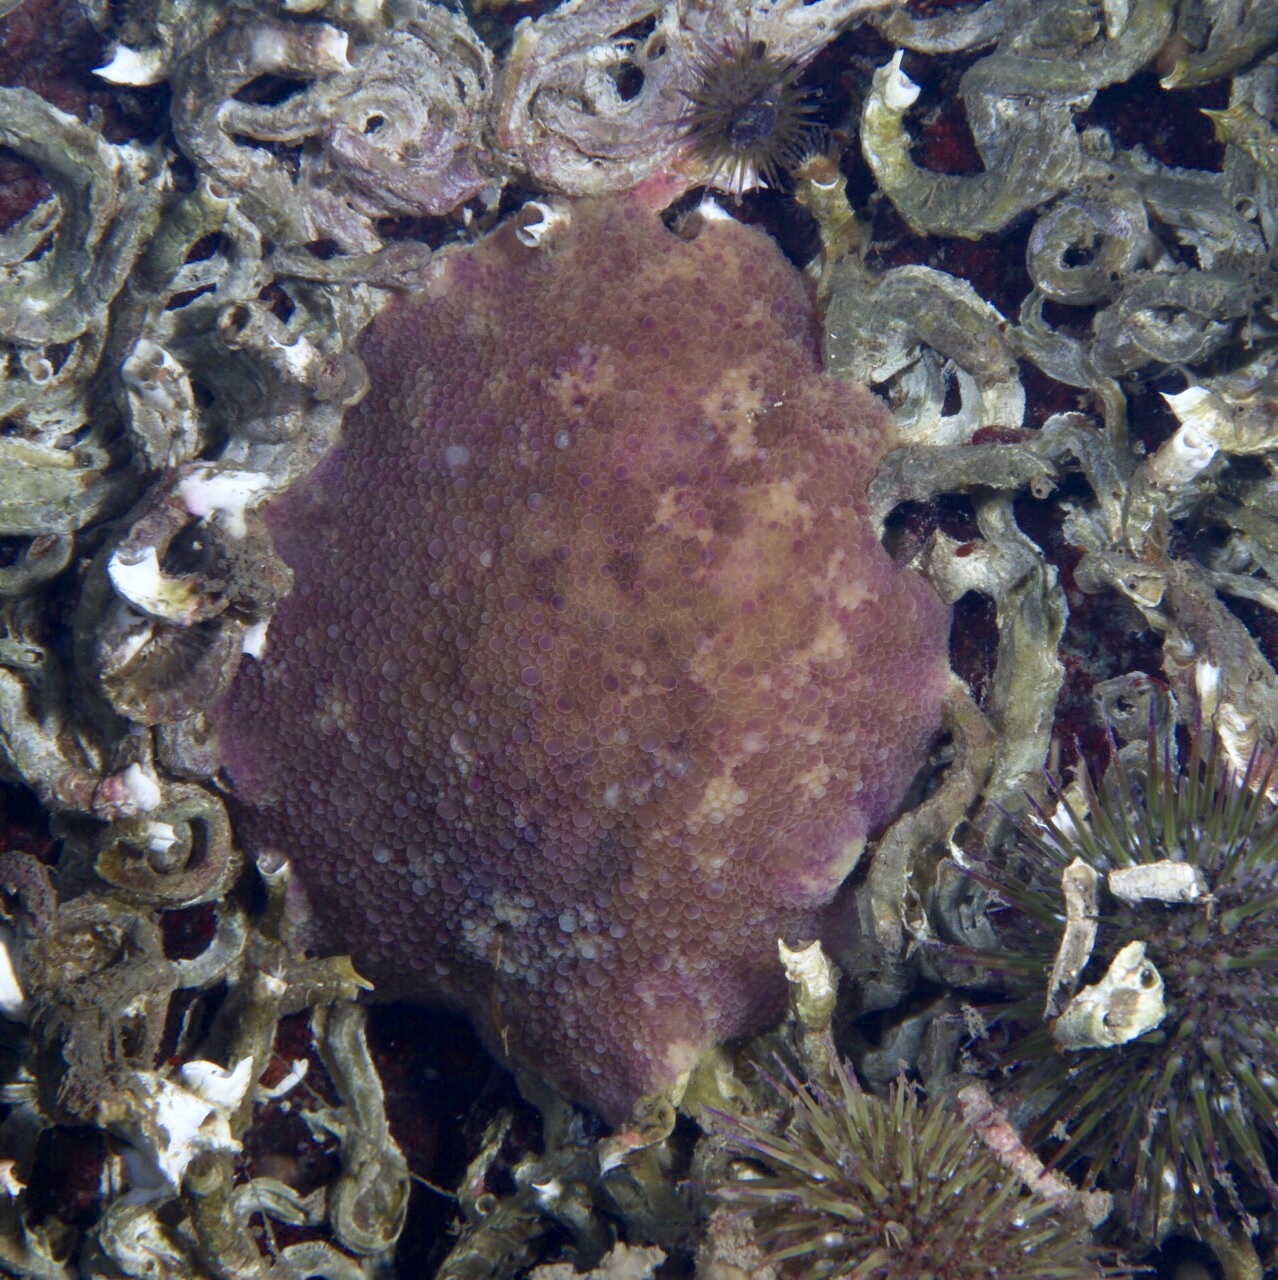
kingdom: Animalia
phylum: Mollusca
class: Gastropoda
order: Nudibranchia
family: Dorididae
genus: Doris
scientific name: Doris pseudoargus
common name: Sea lemon
